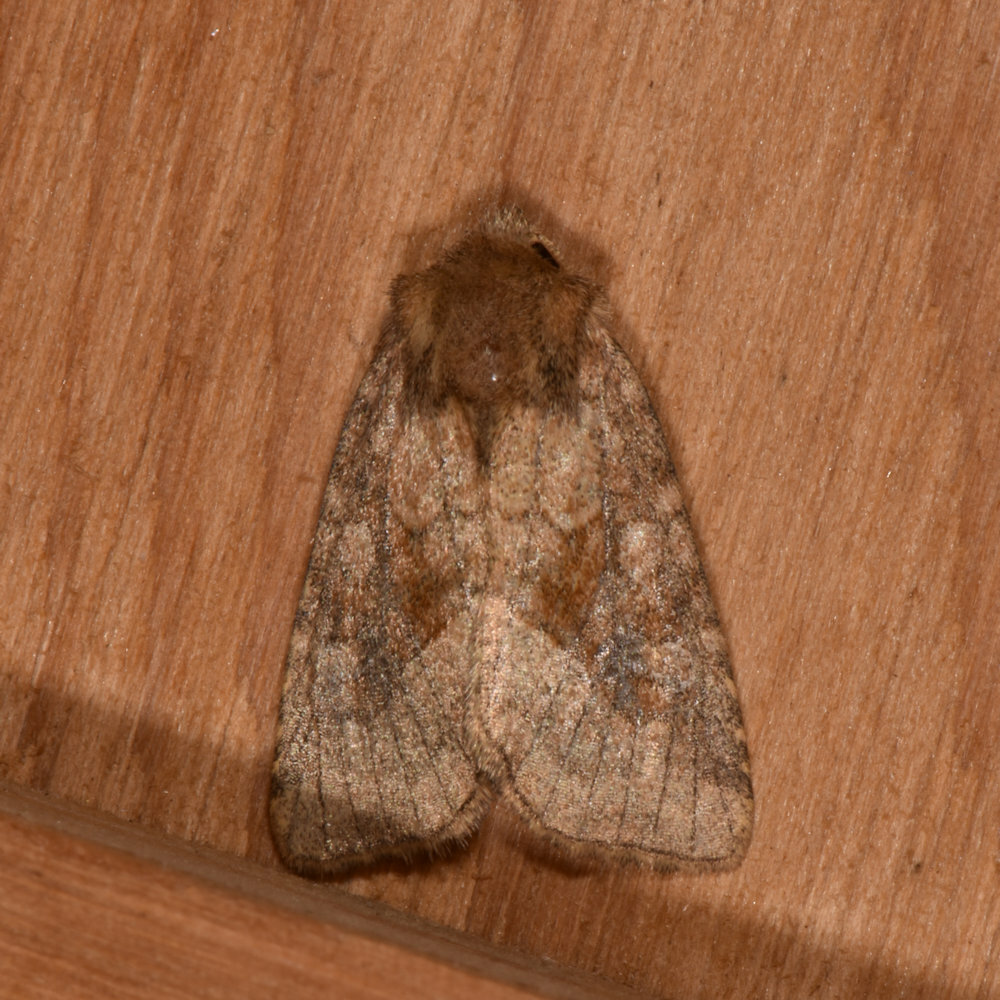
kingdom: Animalia
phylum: Arthropoda
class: Insecta
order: Lepidoptera
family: Noctuidae
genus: Nephelodes
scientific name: Nephelodes minians
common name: Bronzed cutworm
